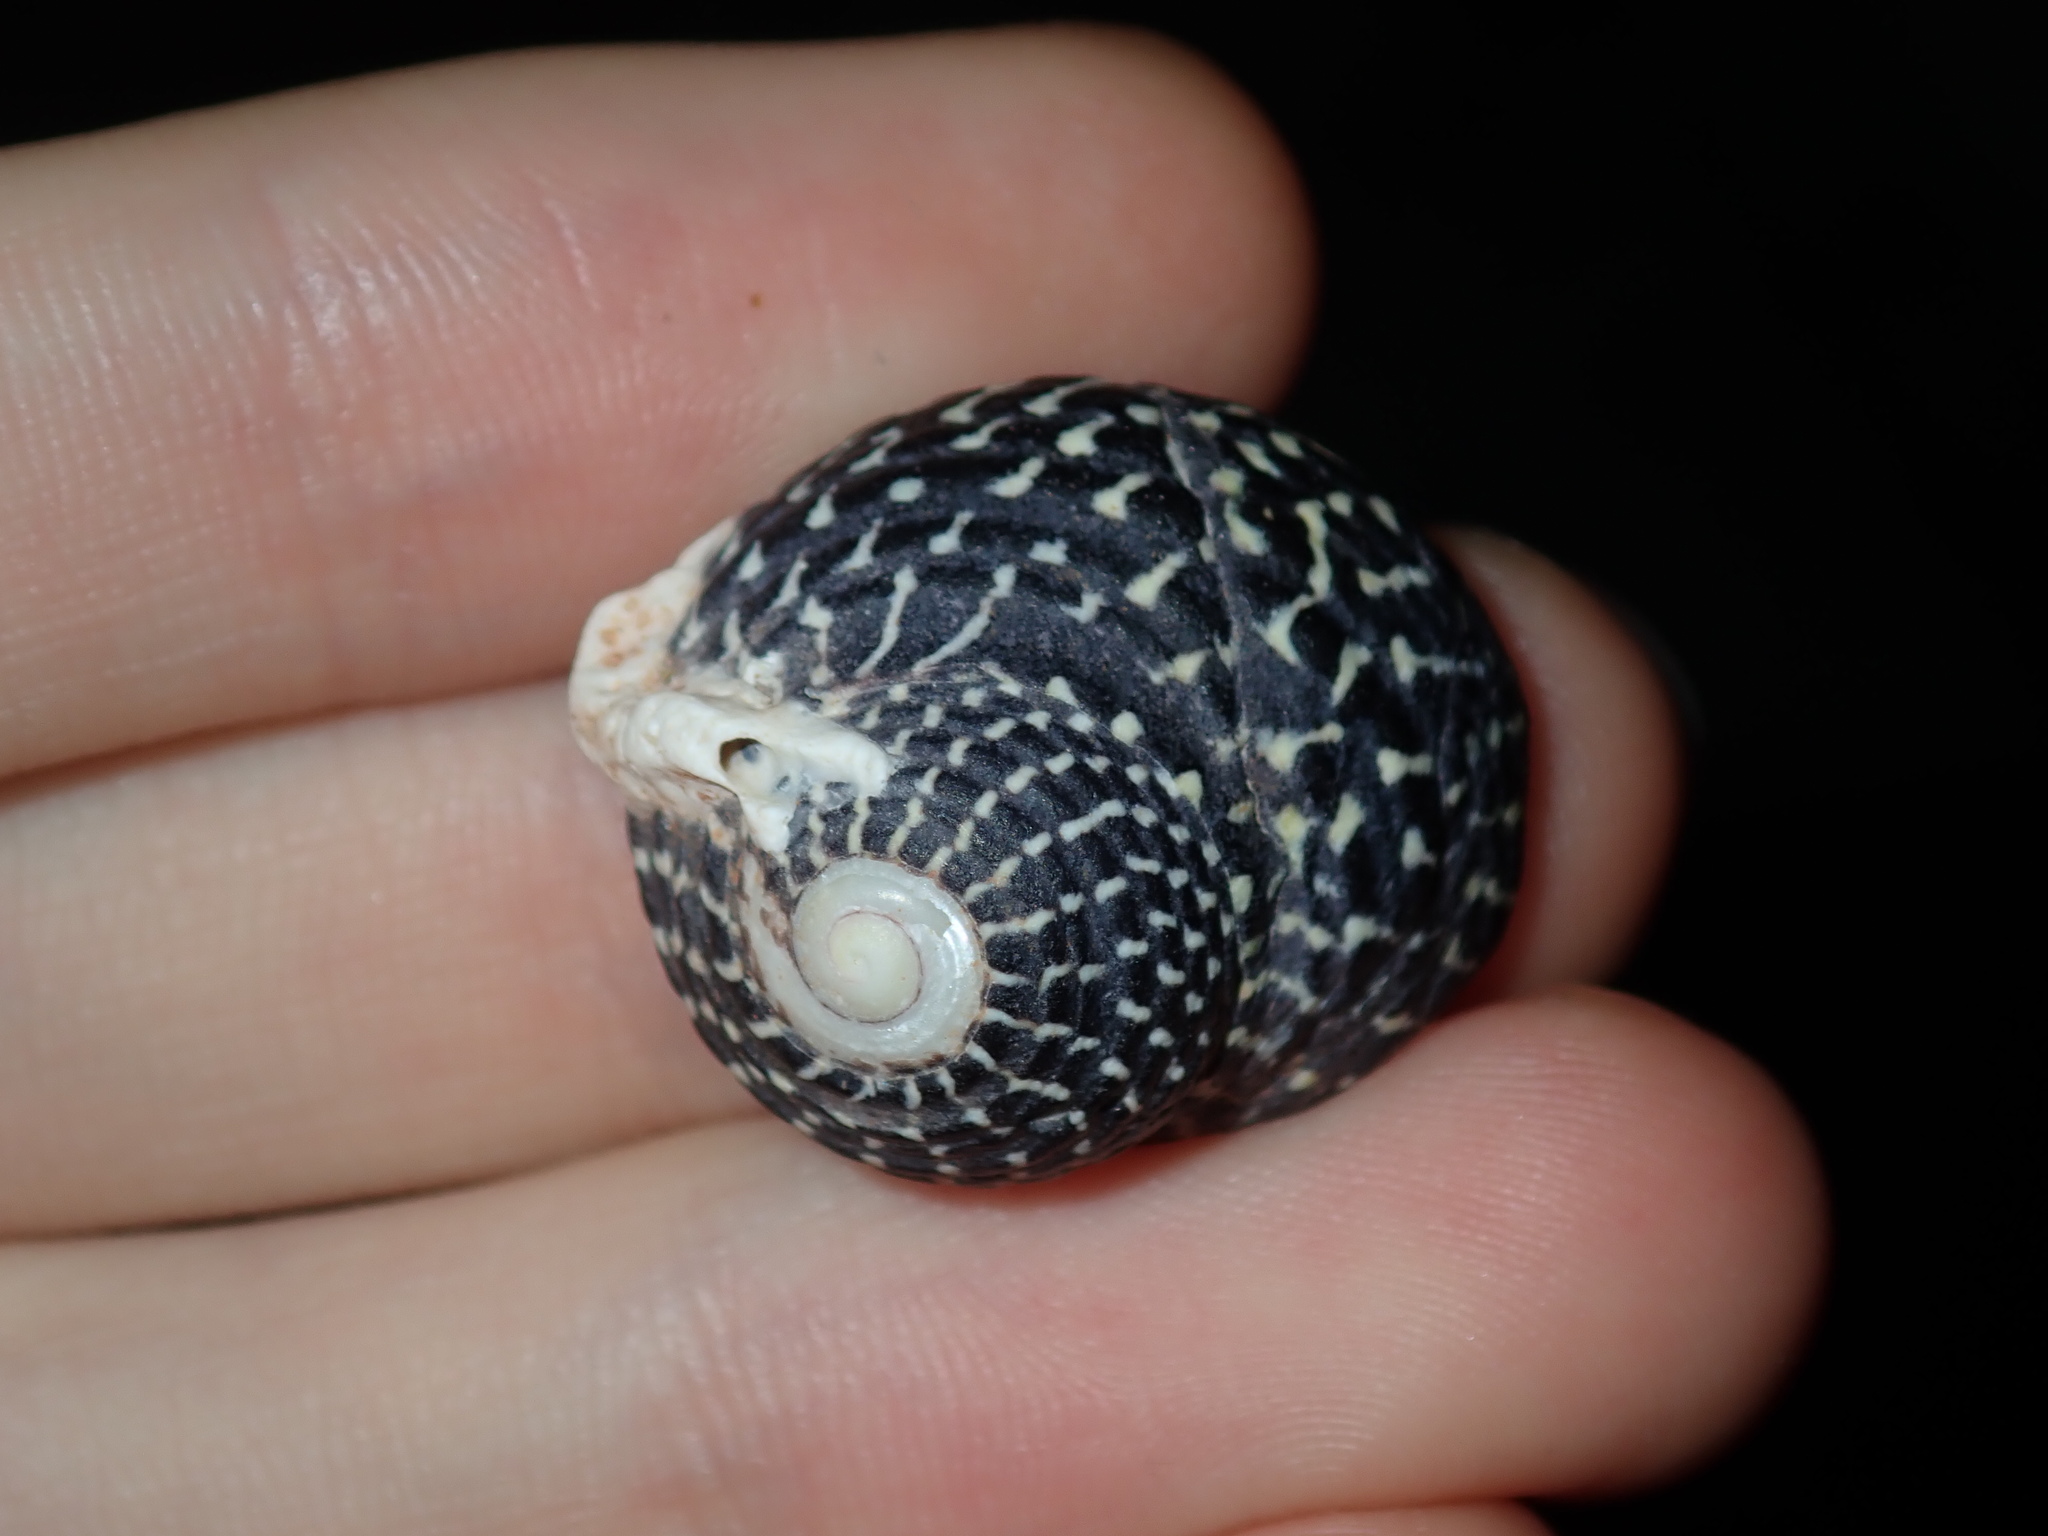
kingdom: Animalia
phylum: Mollusca
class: Gastropoda
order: Trochida
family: Trochidae
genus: Diloma
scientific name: Diloma concameratum
